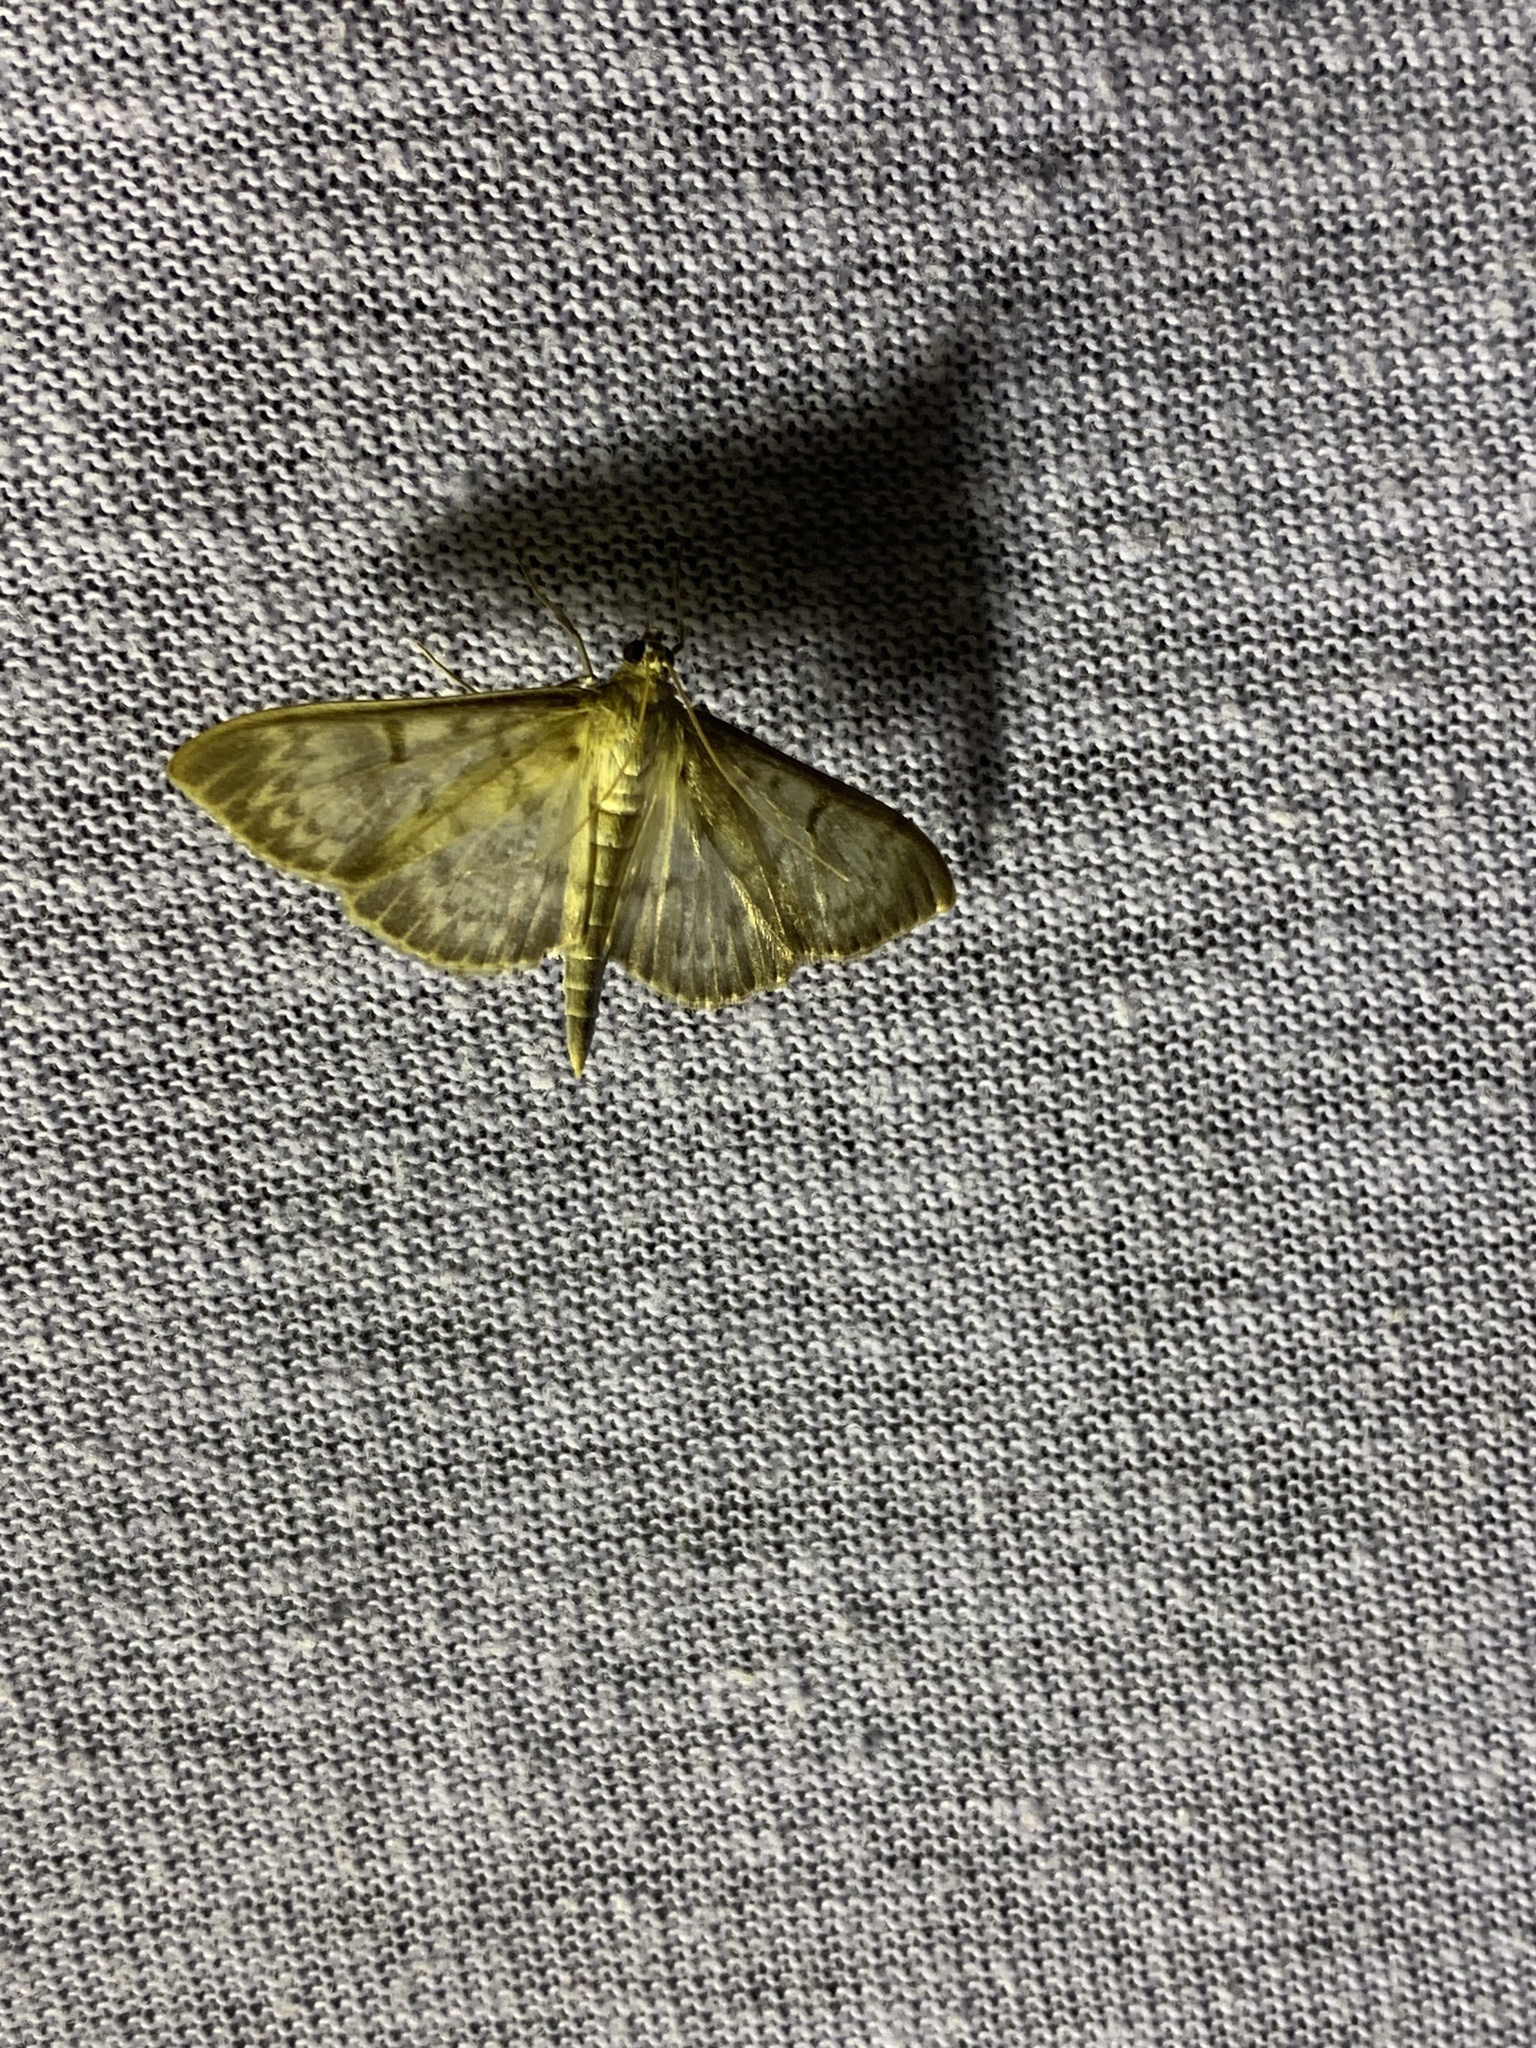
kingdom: Animalia
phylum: Arthropoda
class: Insecta
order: Lepidoptera
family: Crambidae
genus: Patania
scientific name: Patania ruralis
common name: Mother of pearl
